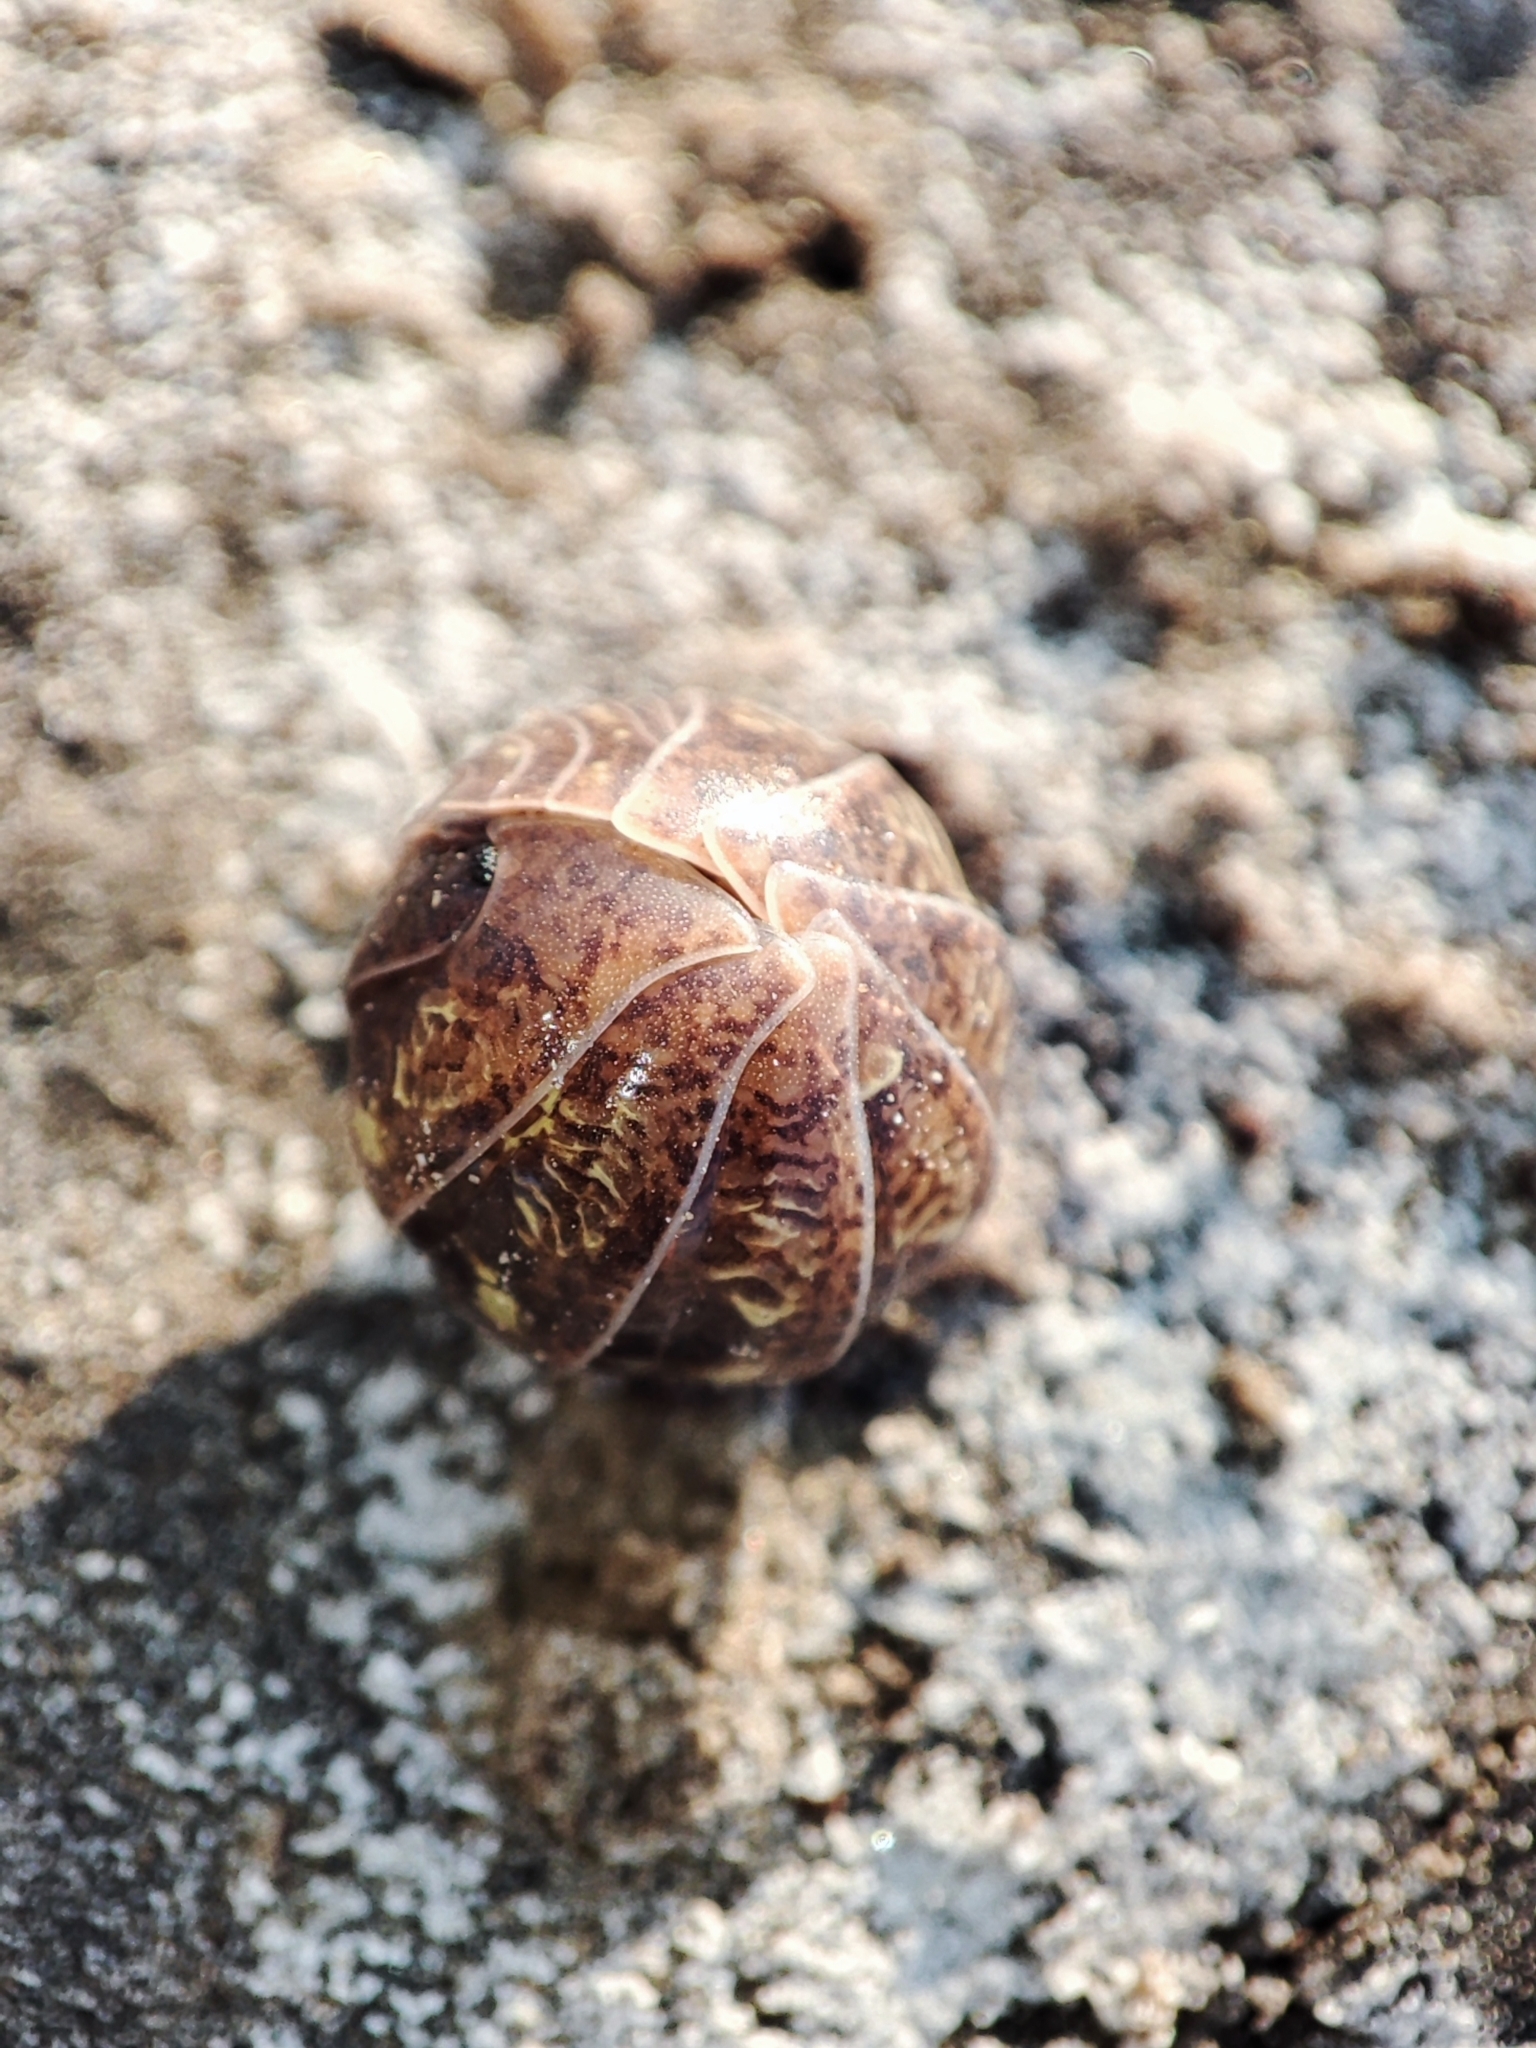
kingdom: Animalia
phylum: Arthropoda
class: Malacostraca
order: Isopoda
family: Armadillidiidae
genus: Armadillidium
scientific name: Armadillidium traiani
